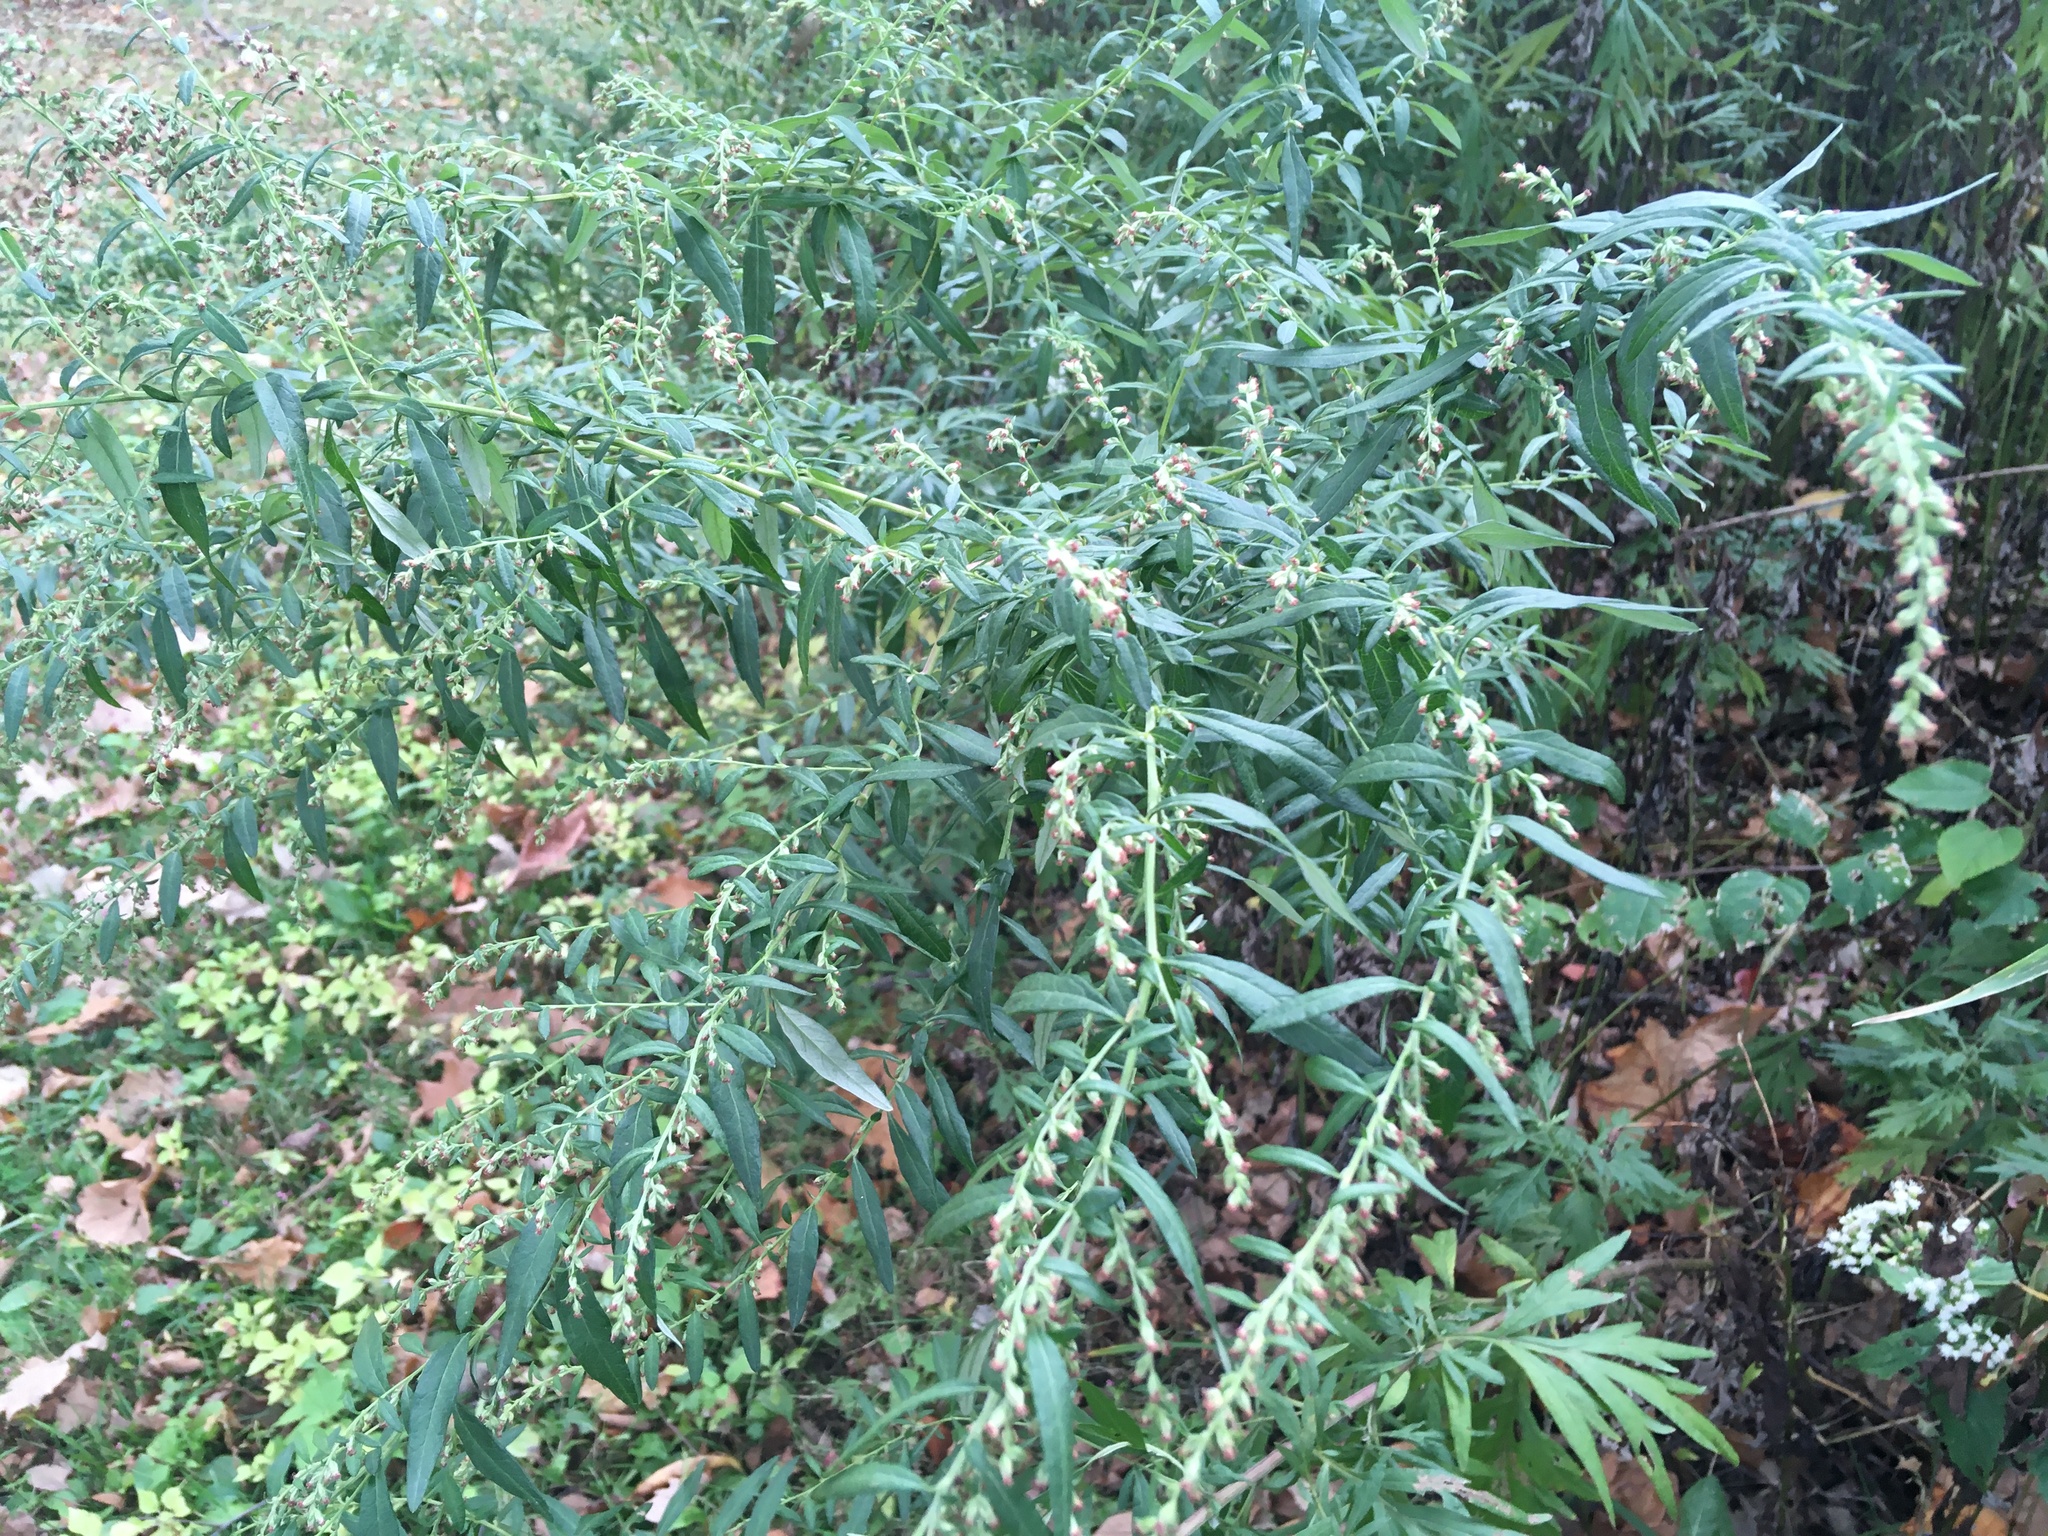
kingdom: Plantae
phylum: Tracheophyta
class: Magnoliopsida
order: Asterales
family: Asteraceae
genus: Artemisia
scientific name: Artemisia vulgaris
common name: Mugwort
